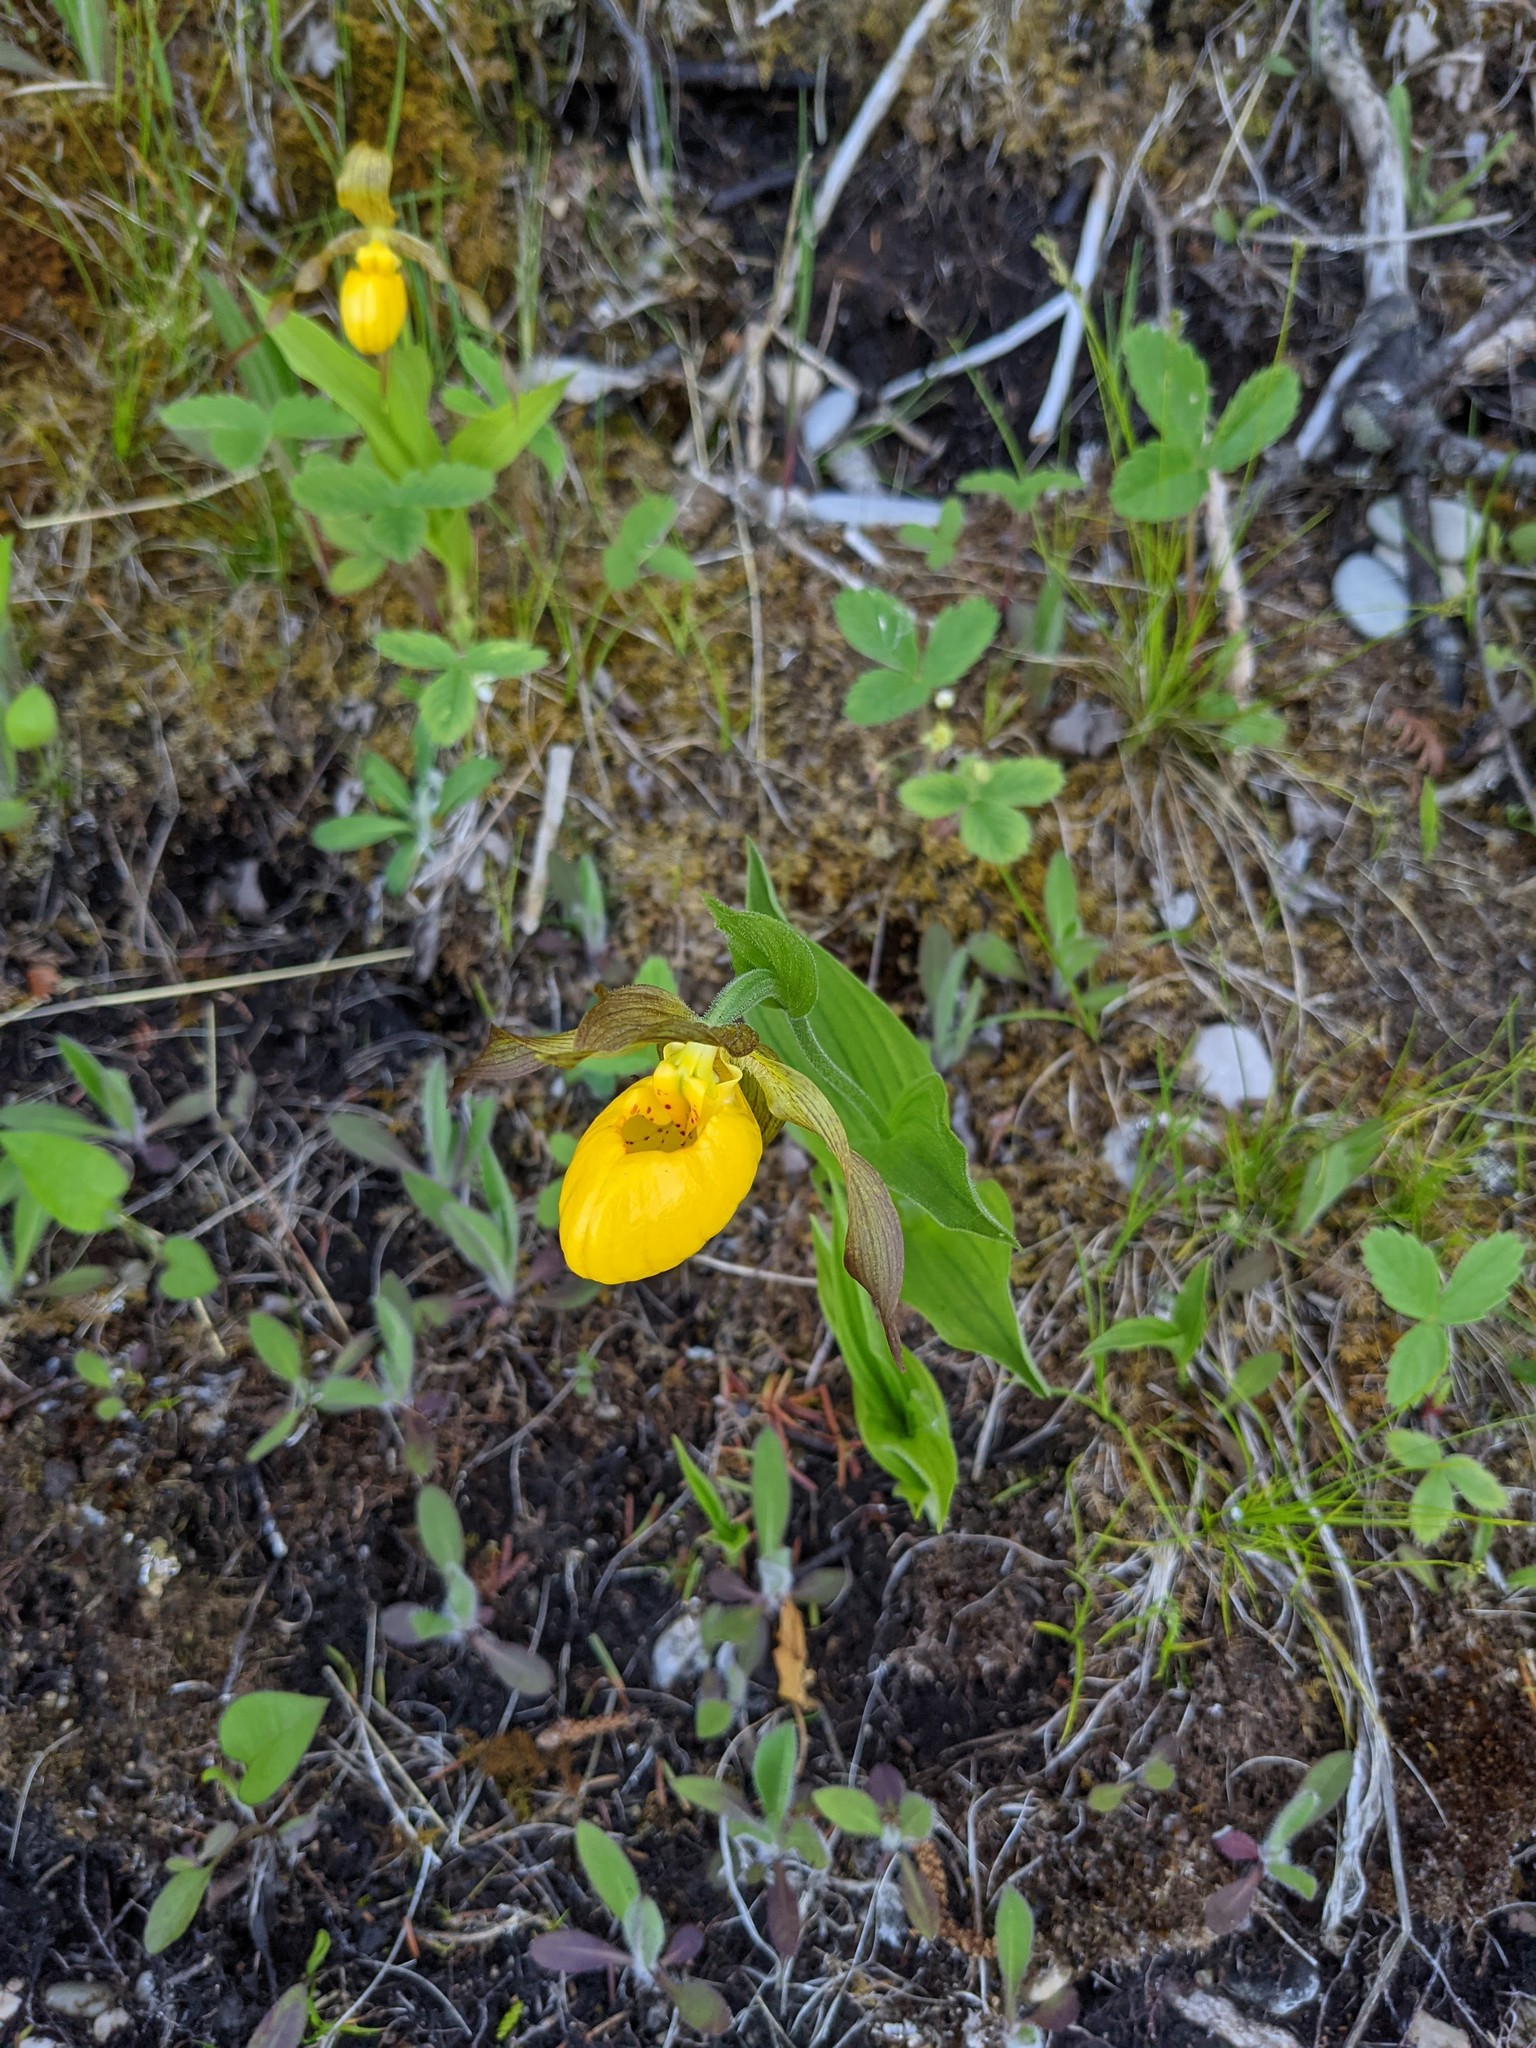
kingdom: Plantae
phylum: Tracheophyta
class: Liliopsida
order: Asparagales
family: Orchidaceae
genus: Cypripedium
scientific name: Cypripedium parviflorum
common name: American yellow lady's-slipper
